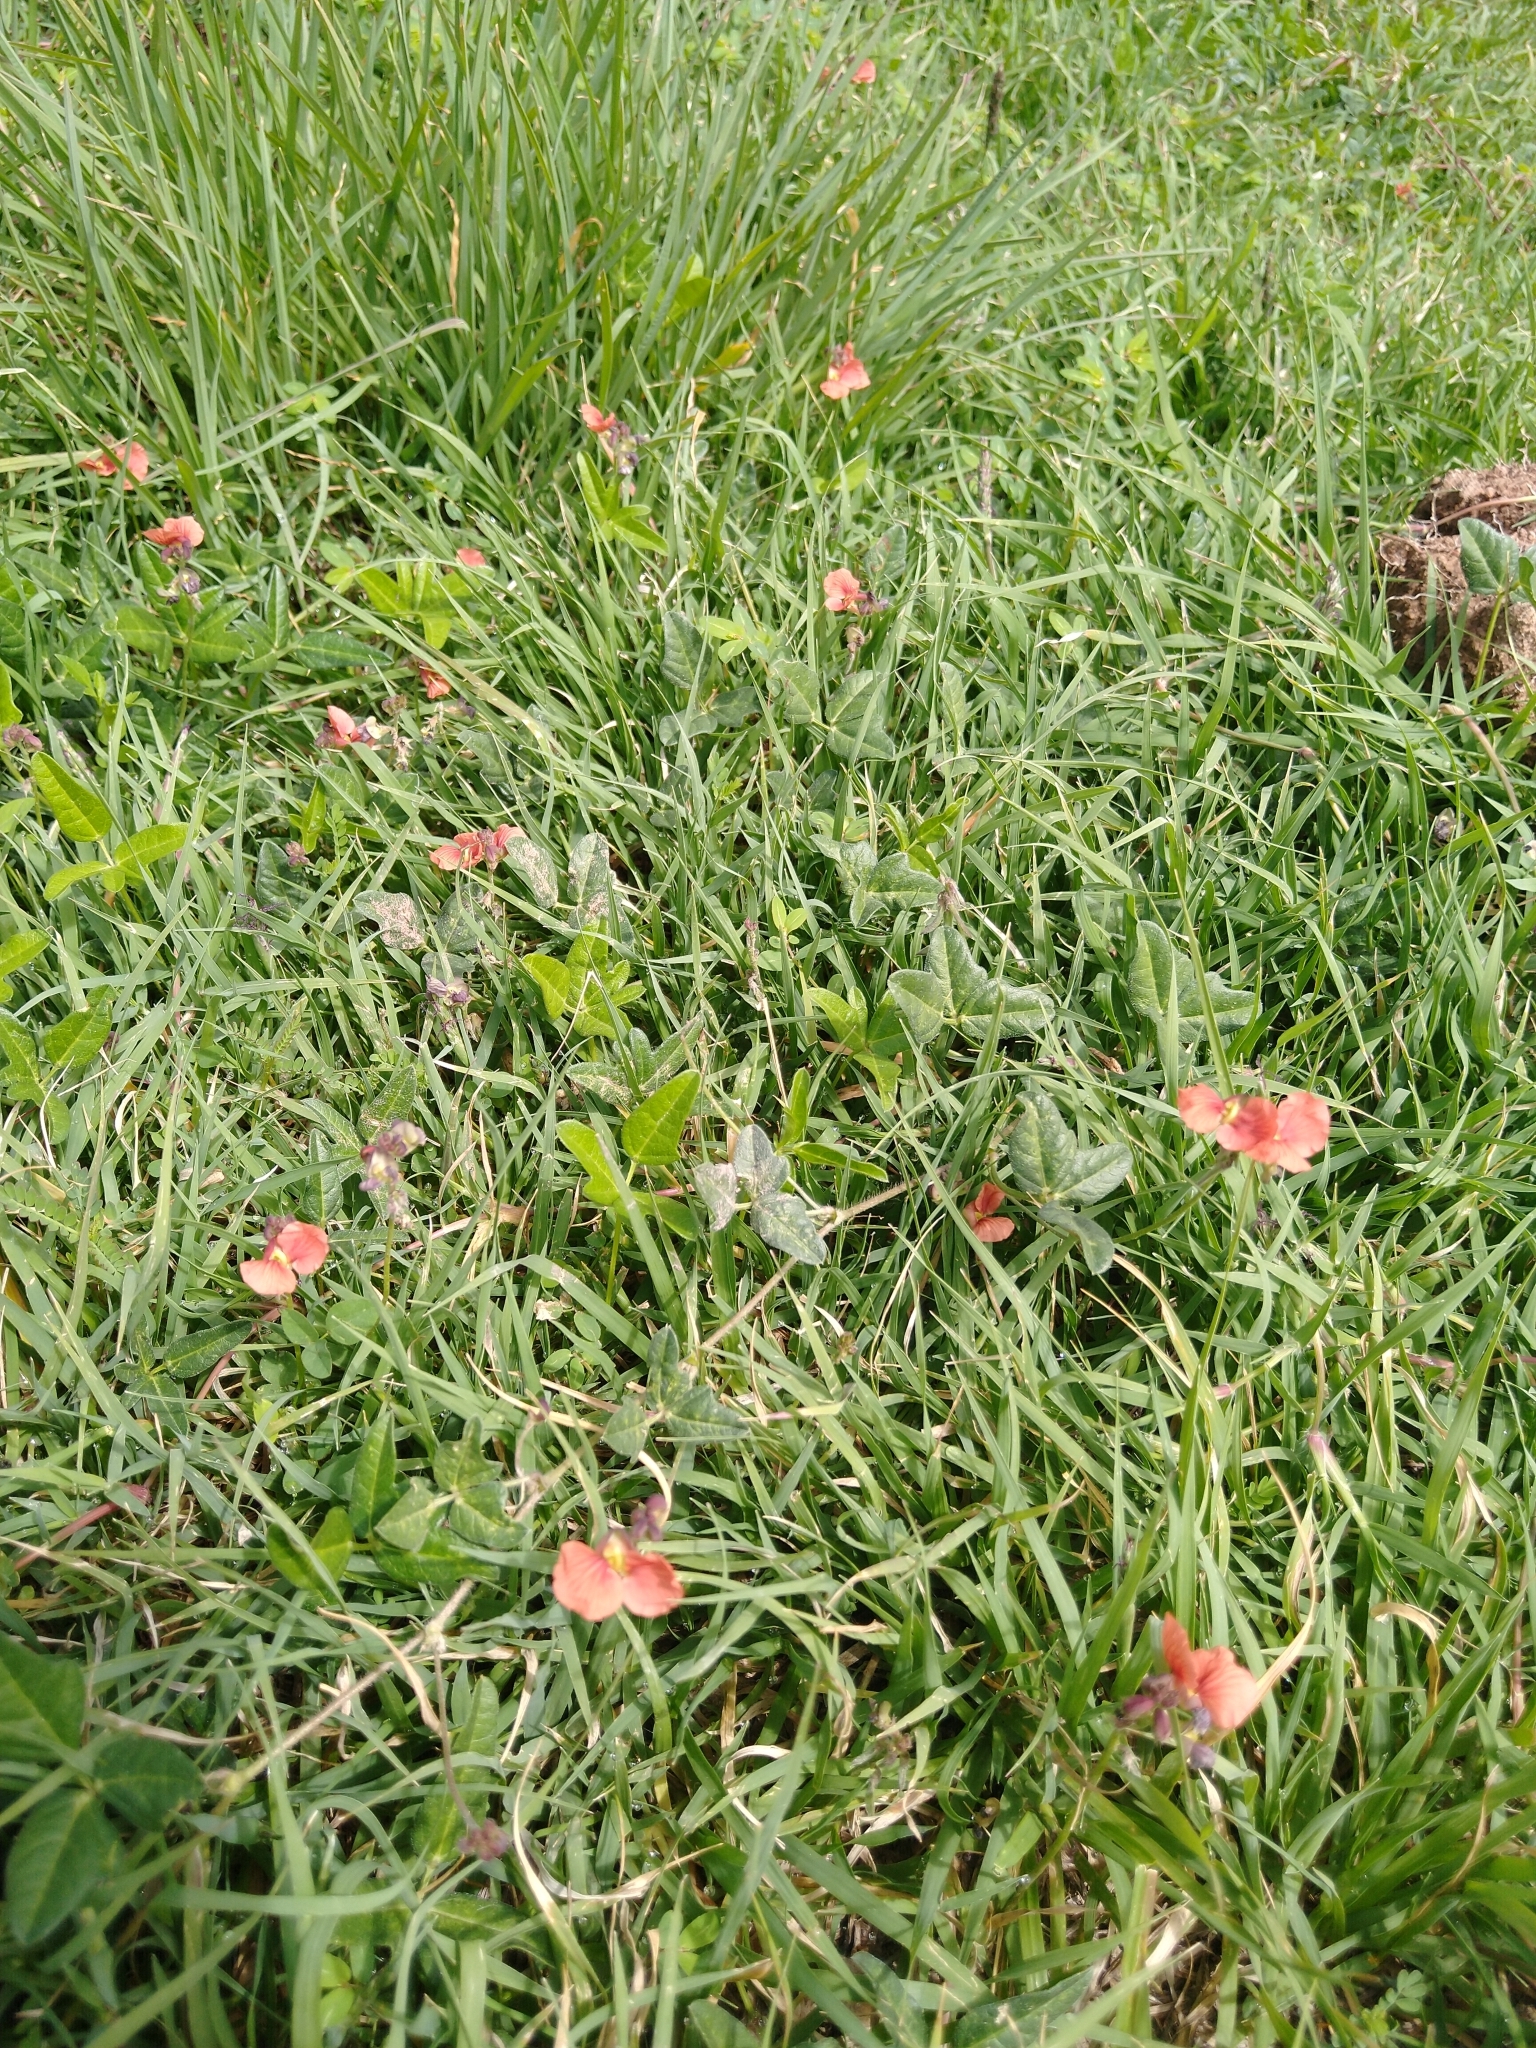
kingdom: Plantae
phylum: Tracheophyta
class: Magnoliopsida
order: Fabales
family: Fabaceae
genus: Macroptilium
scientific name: Macroptilium gibbosifolium
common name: Variableleaf bushbean
